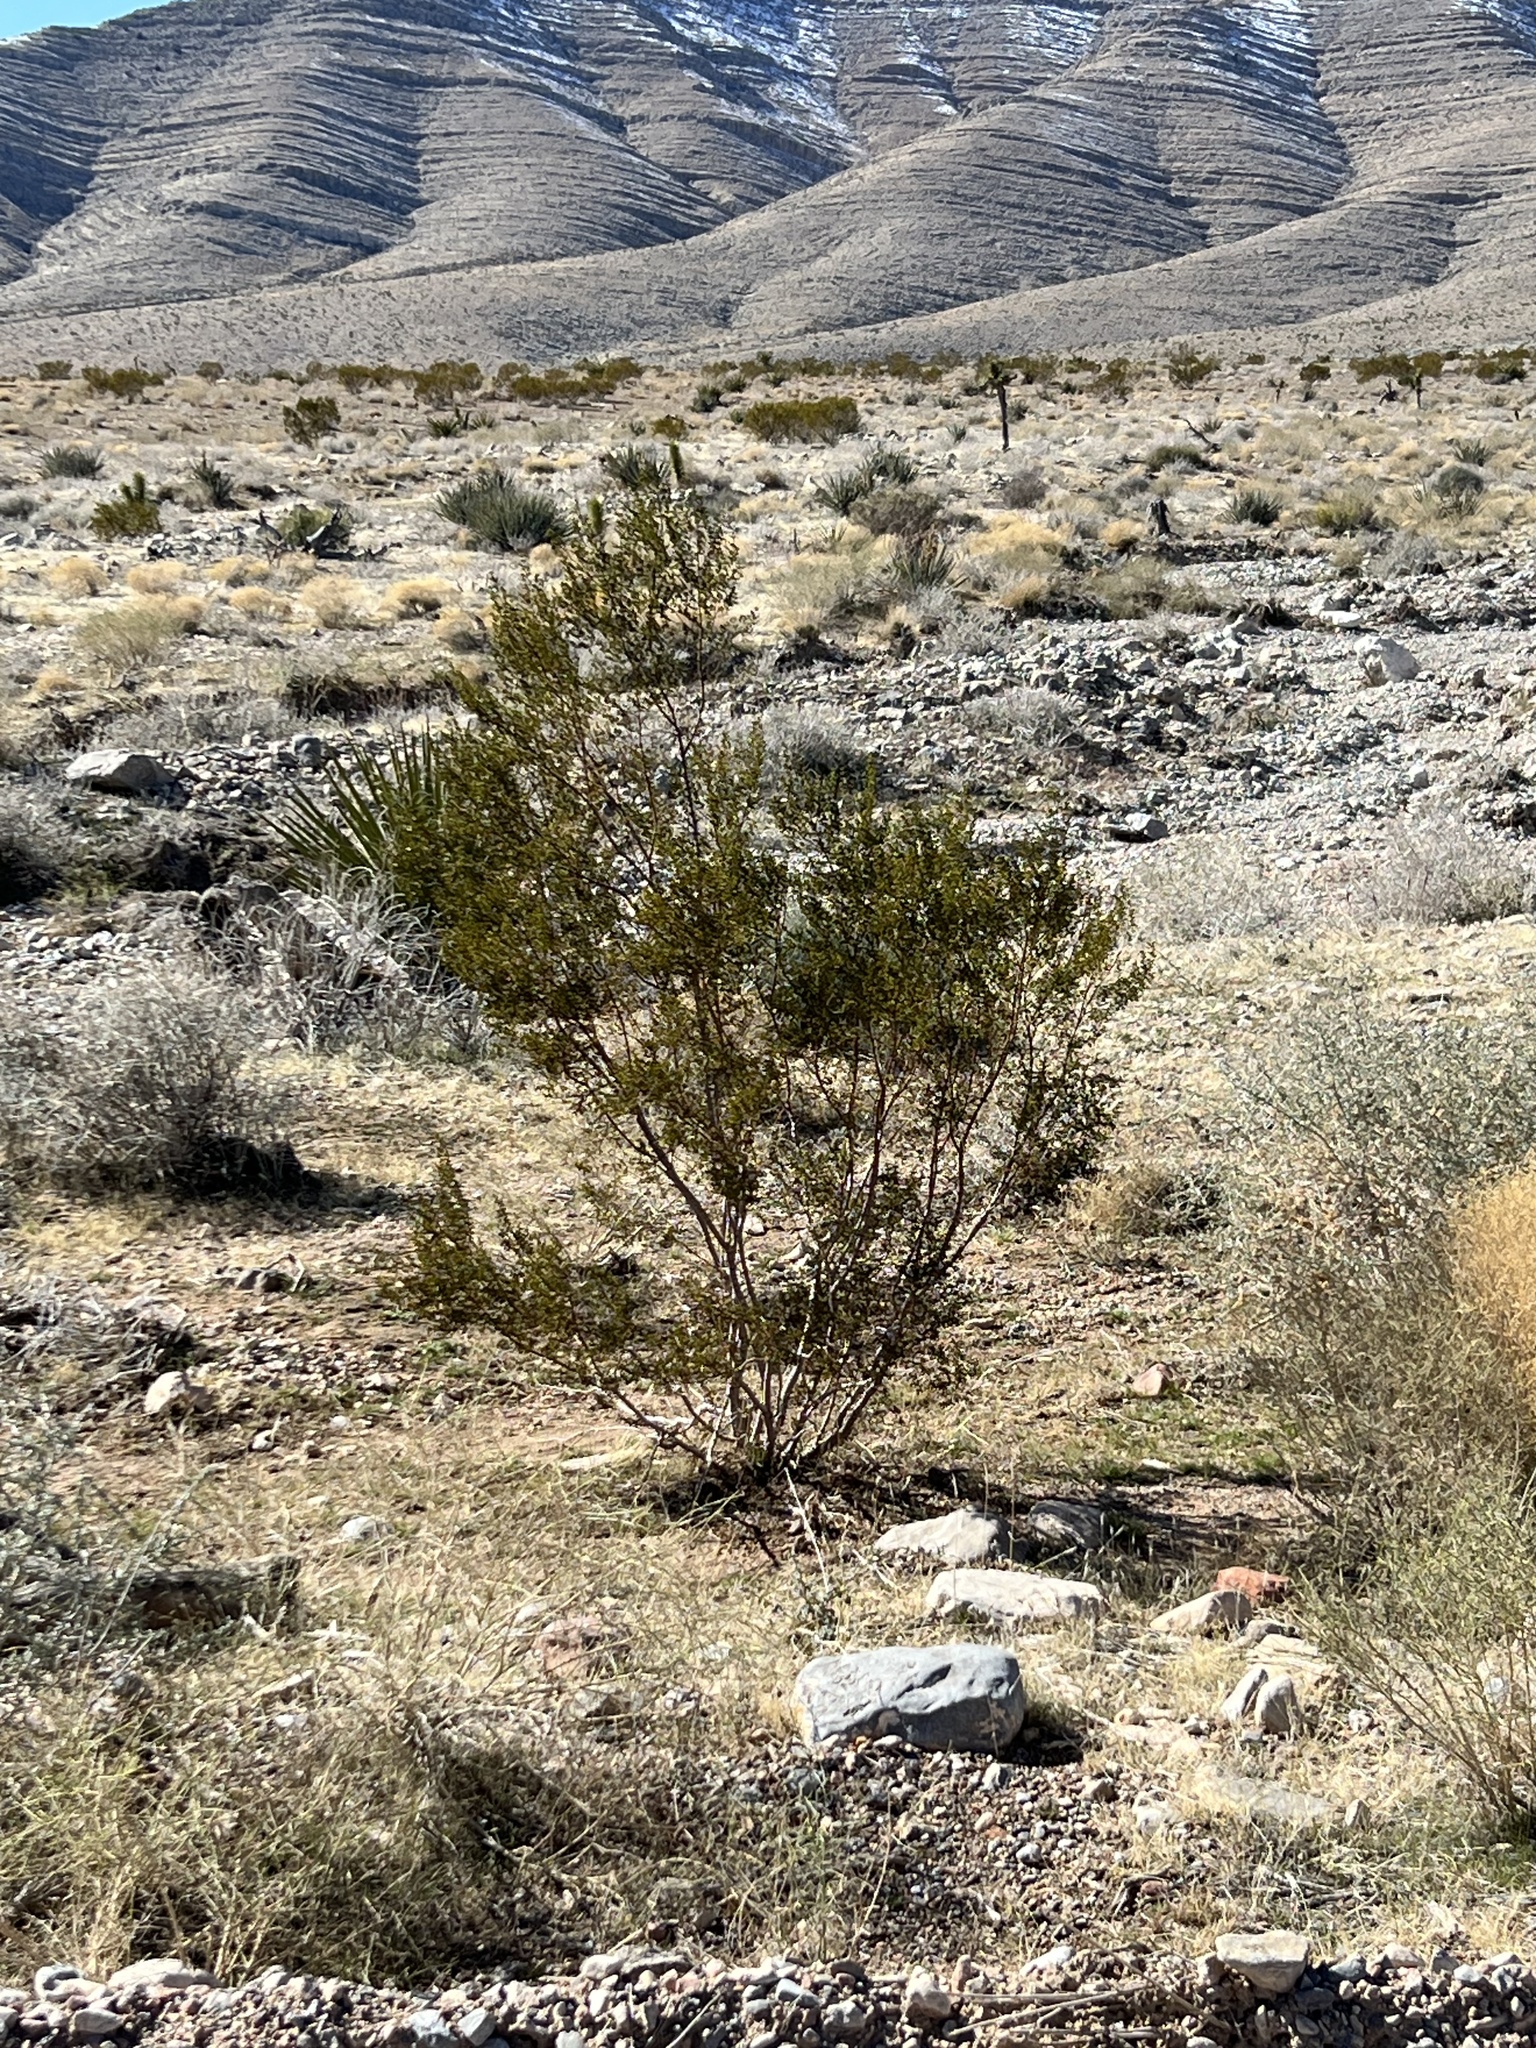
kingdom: Plantae
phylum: Tracheophyta
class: Magnoliopsida
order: Zygophyllales
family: Zygophyllaceae
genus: Larrea
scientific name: Larrea tridentata
